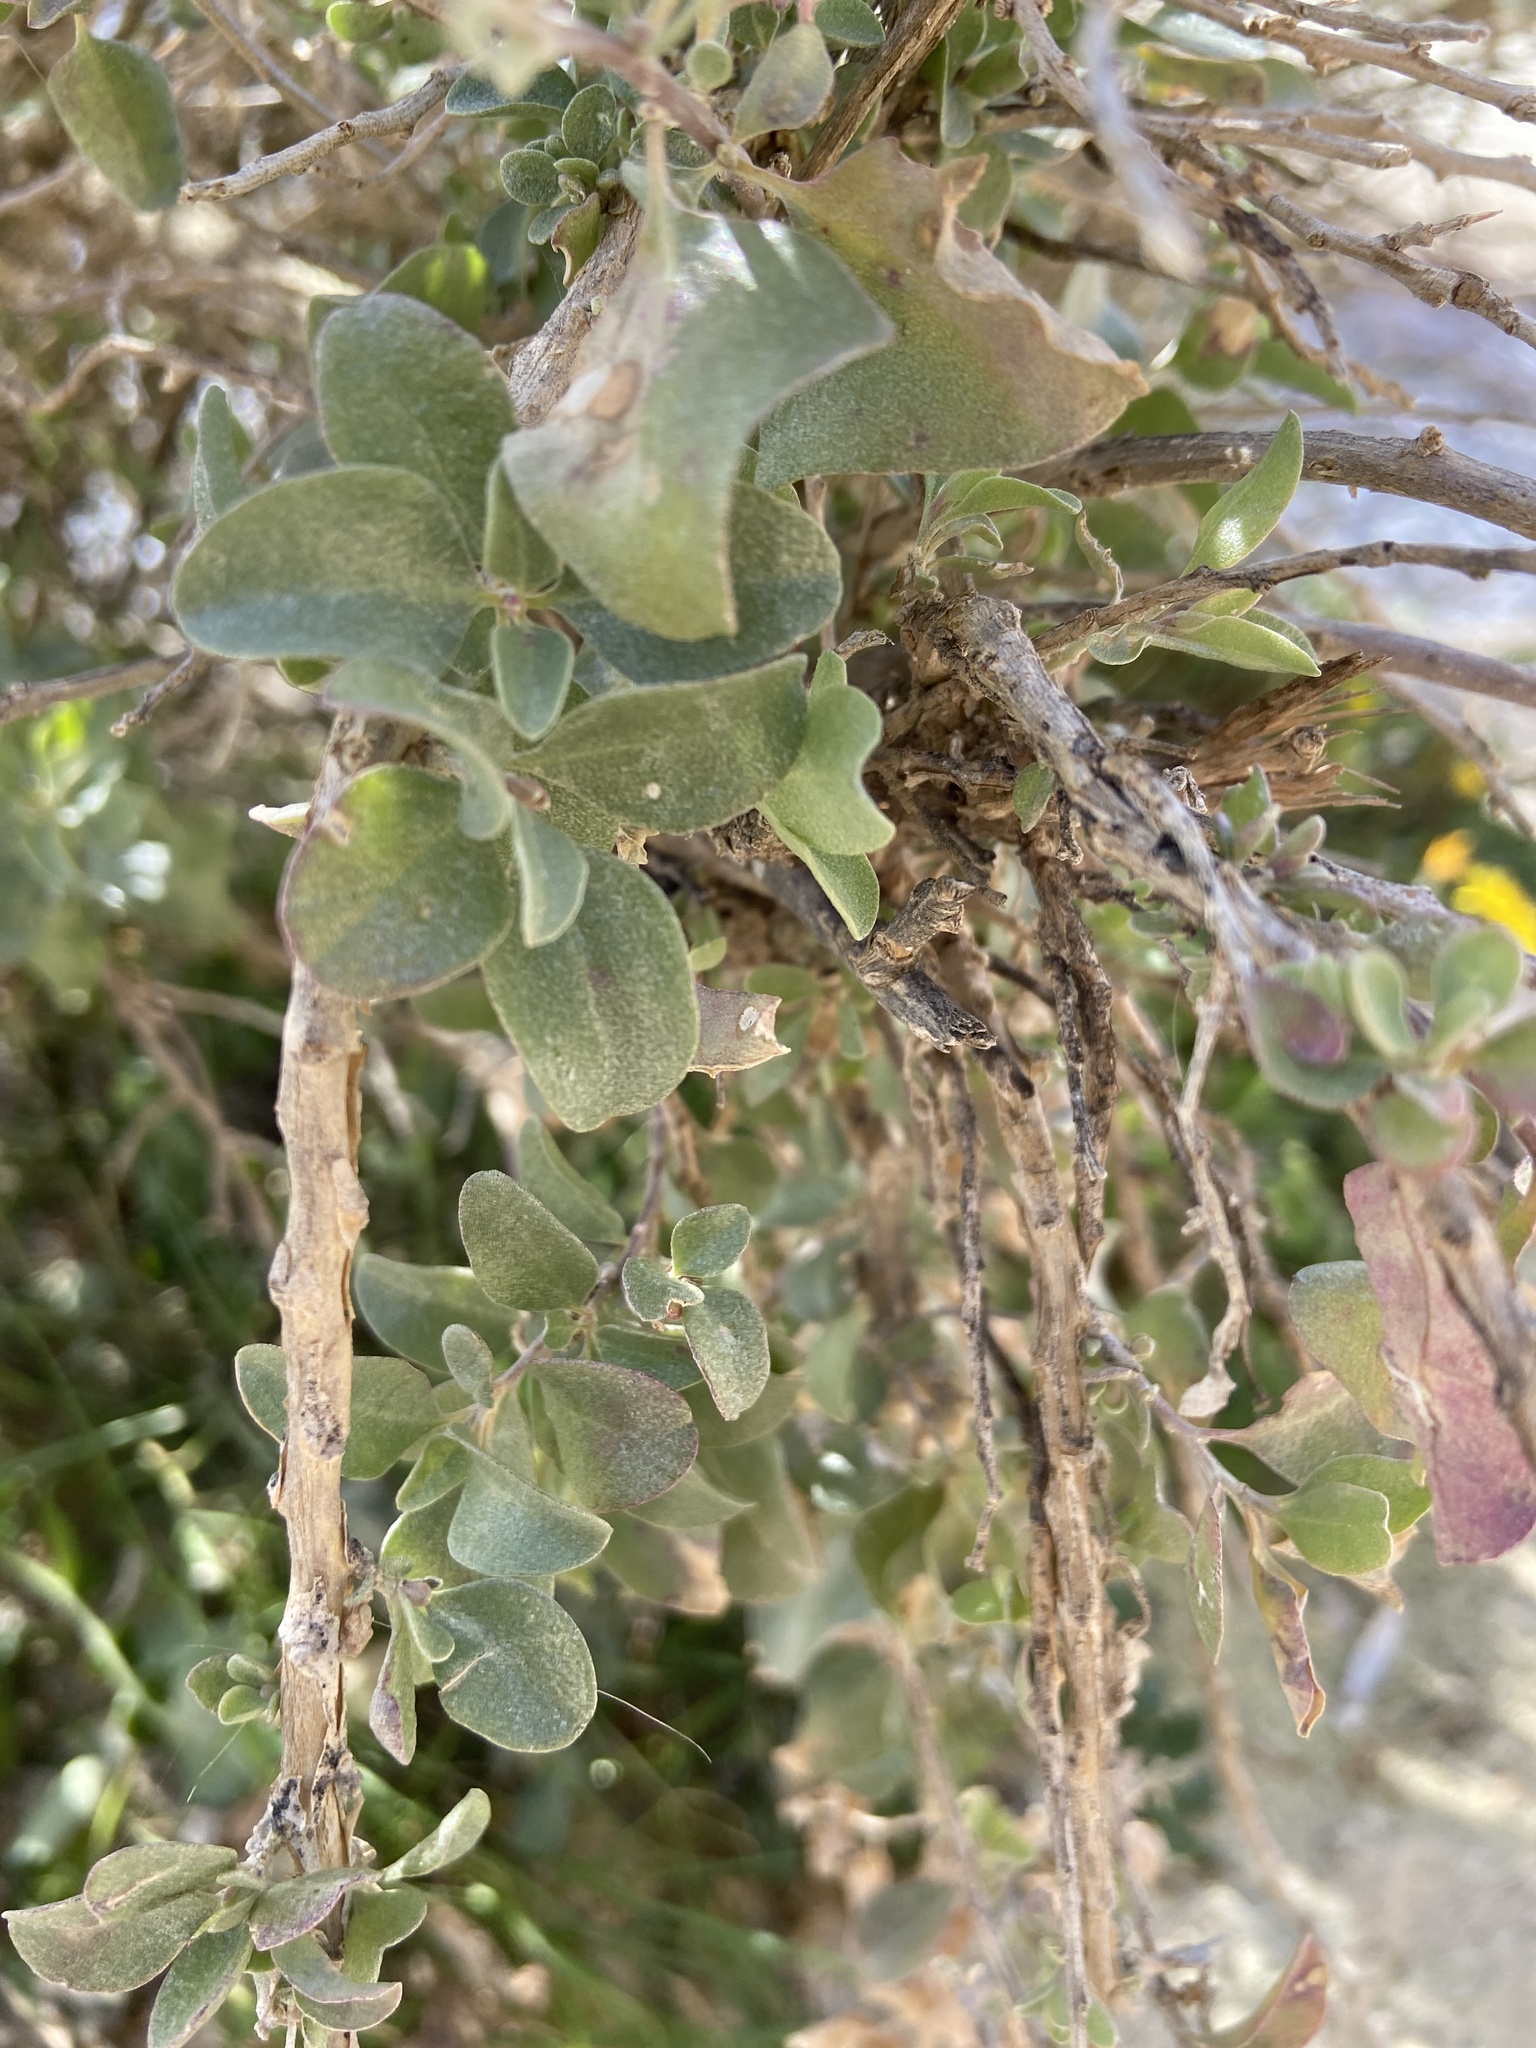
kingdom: Plantae
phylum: Tracheophyta
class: Magnoliopsida
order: Caryophyllales
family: Amaranthaceae
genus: Atriplex
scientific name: Atriplex halimus
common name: Shrubby orache
